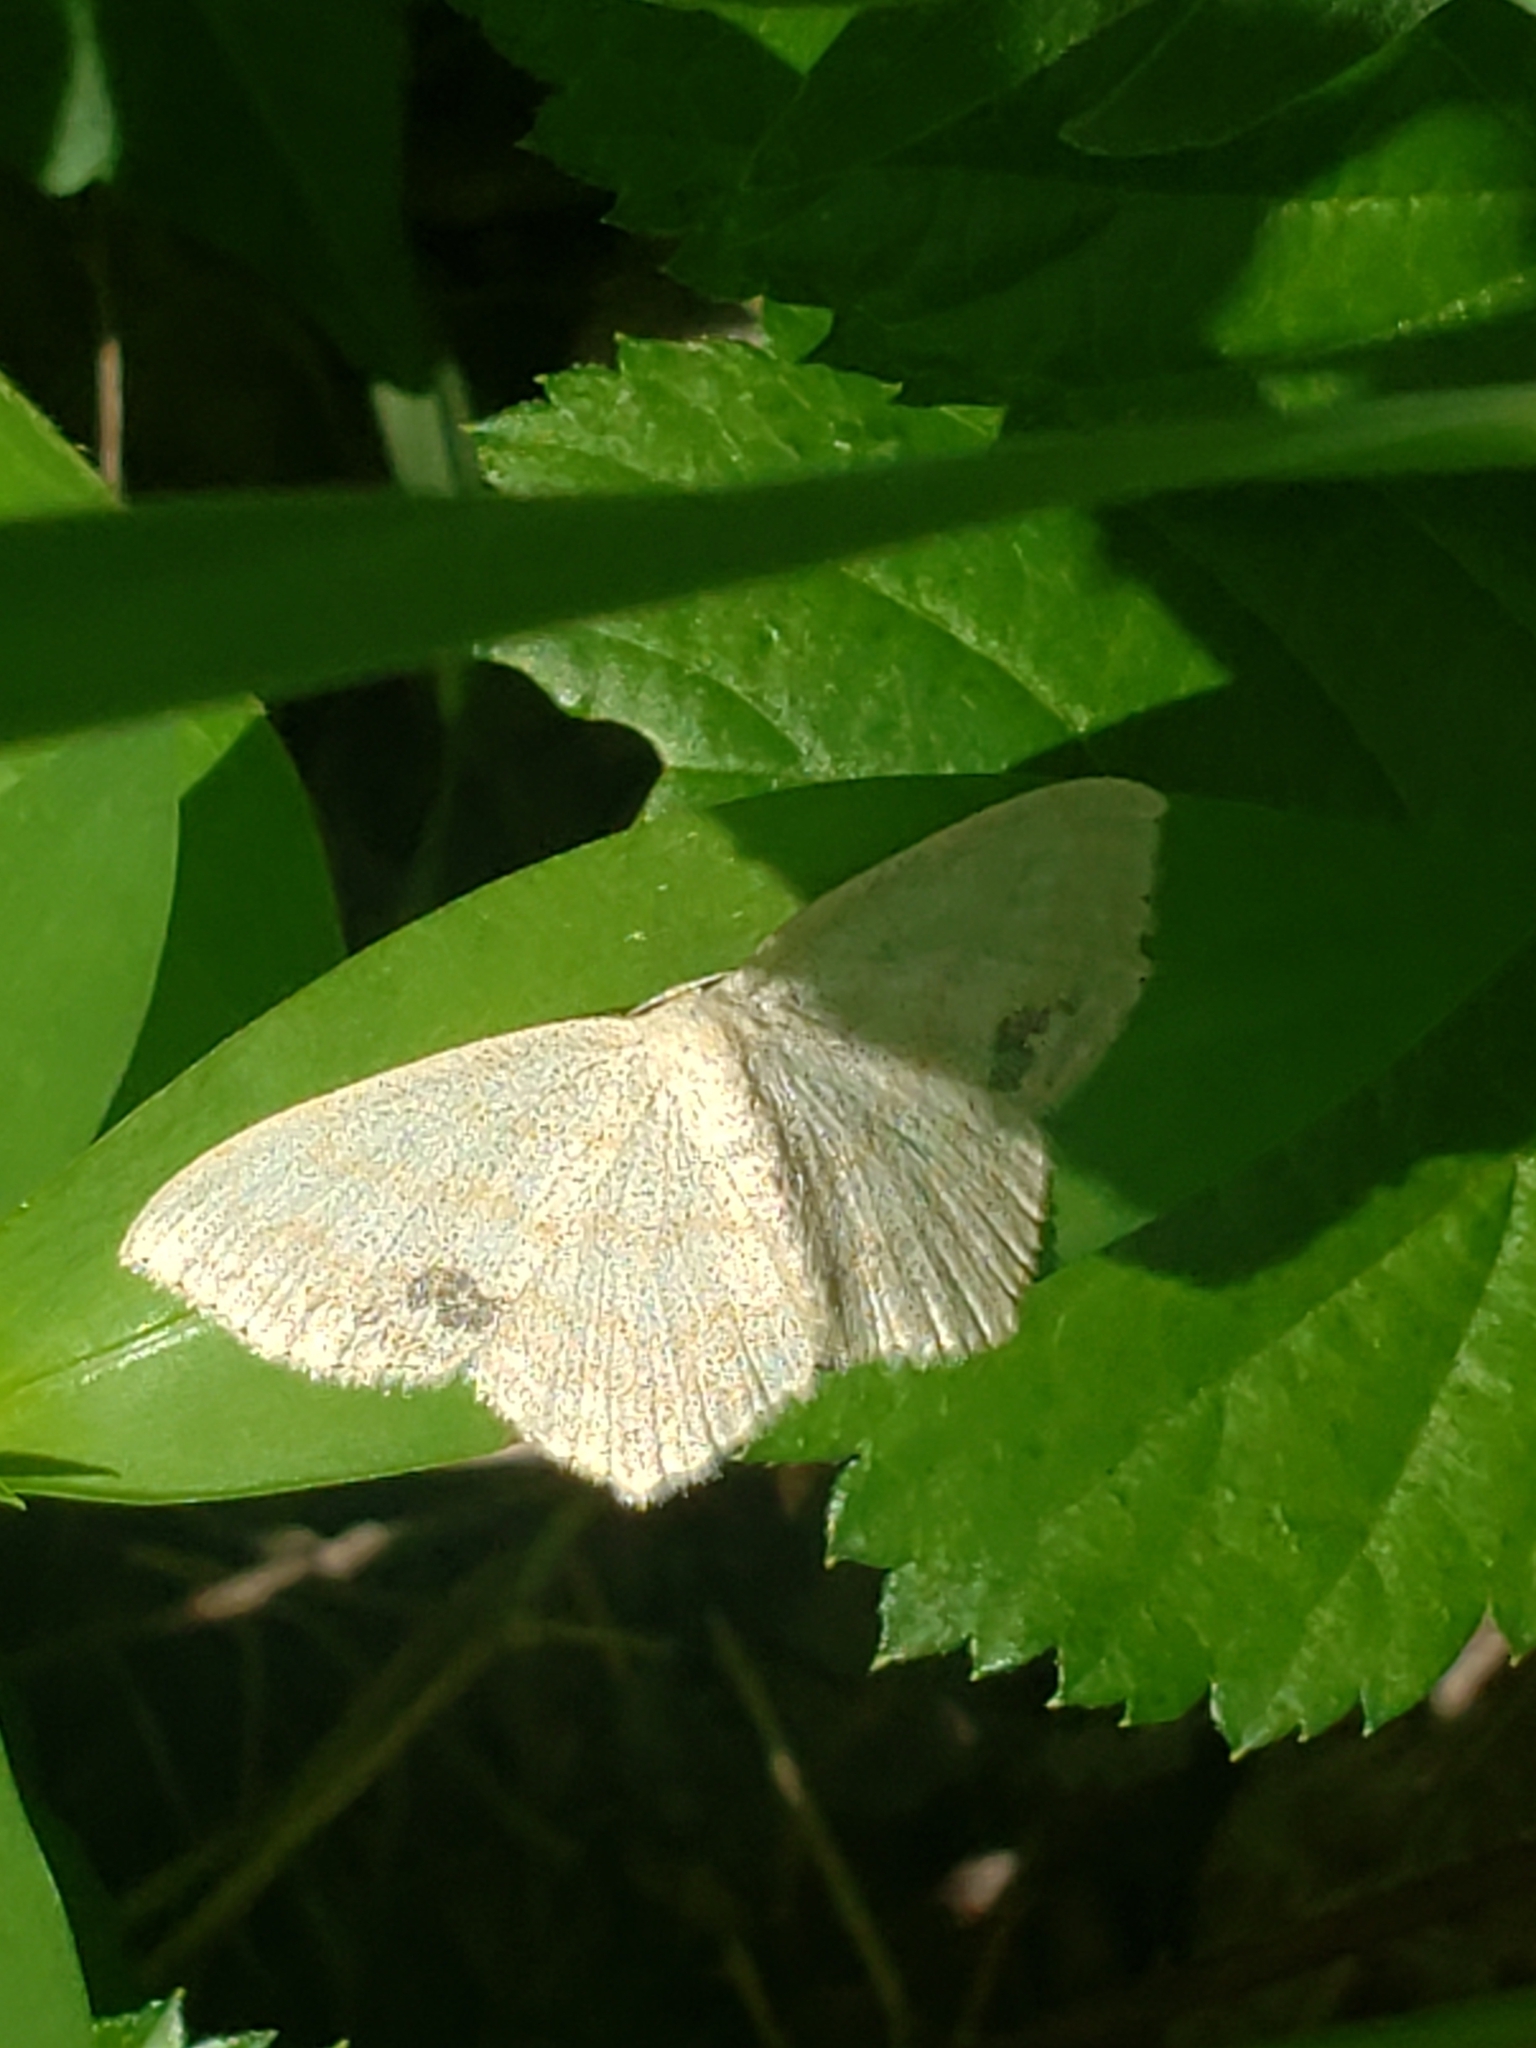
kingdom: Animalia
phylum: Arthropoda
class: Insecta
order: Lepidoptera
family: Geometridae
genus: Scopula
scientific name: Scopula limboundata
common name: Large lace border
